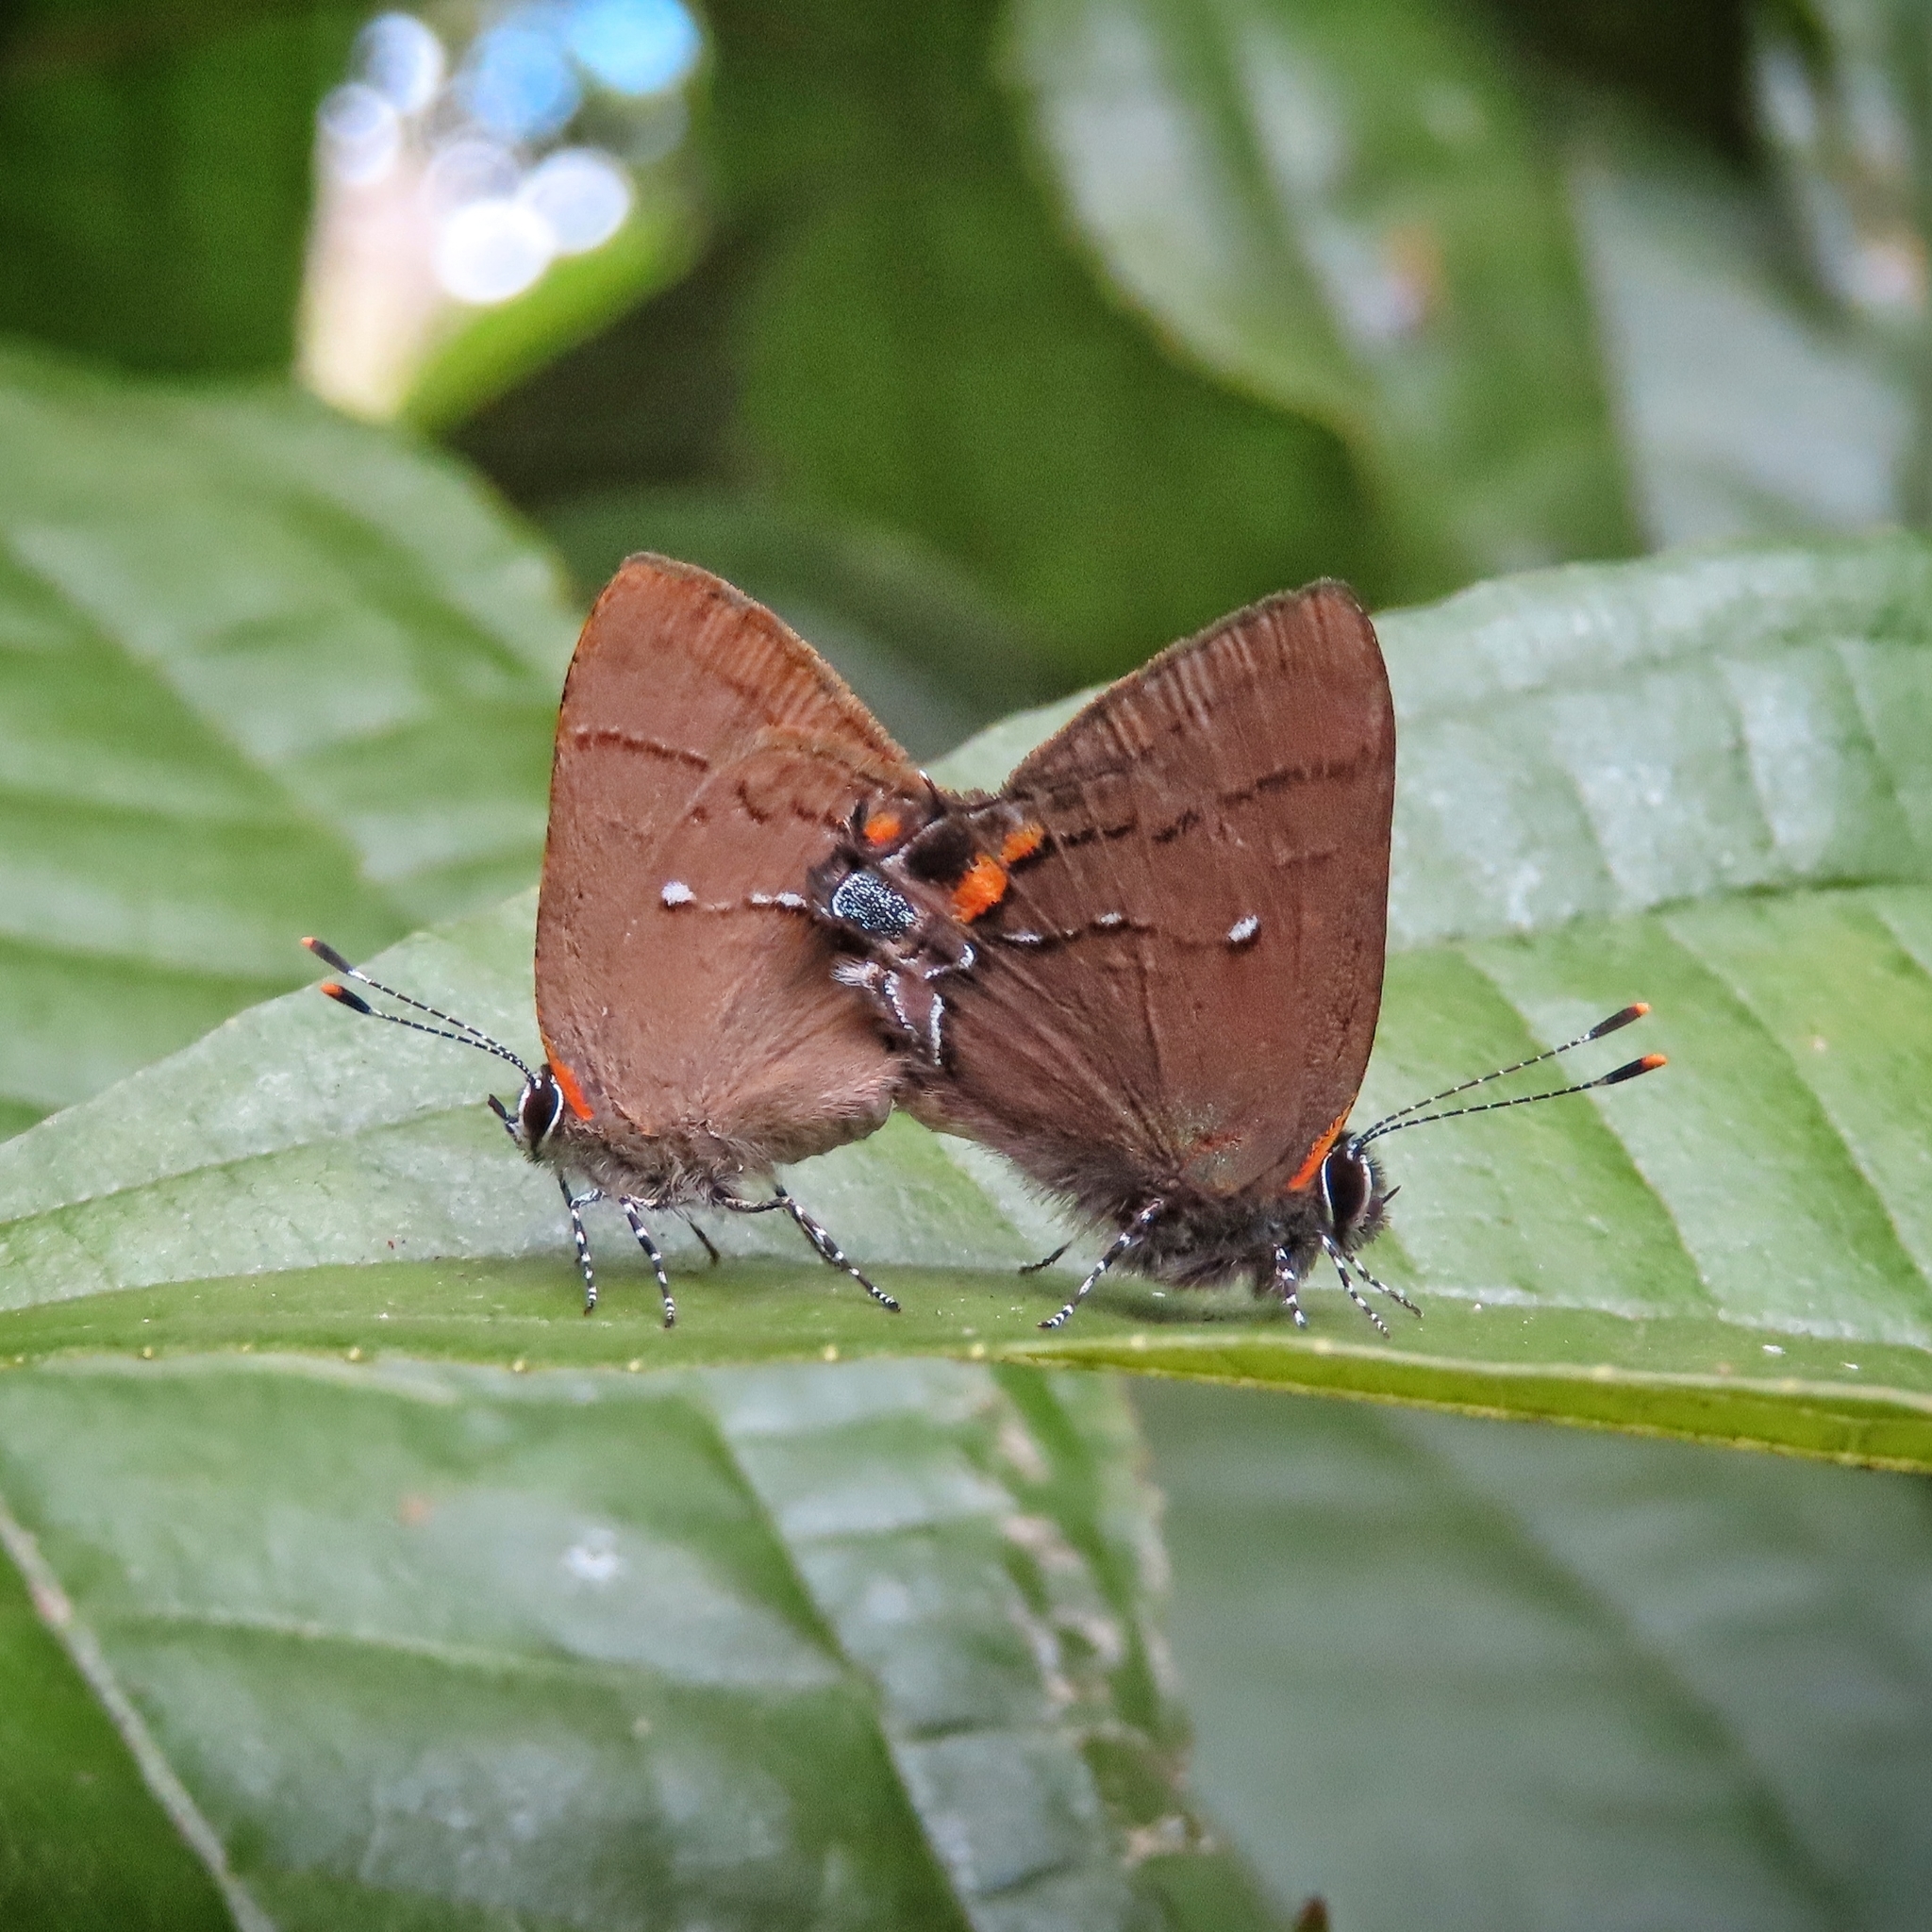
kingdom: Animalia
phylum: Arthropoda
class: Insecta
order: Lepidoptera
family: Lycaenidae
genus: Thecla
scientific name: Thecla angelia
